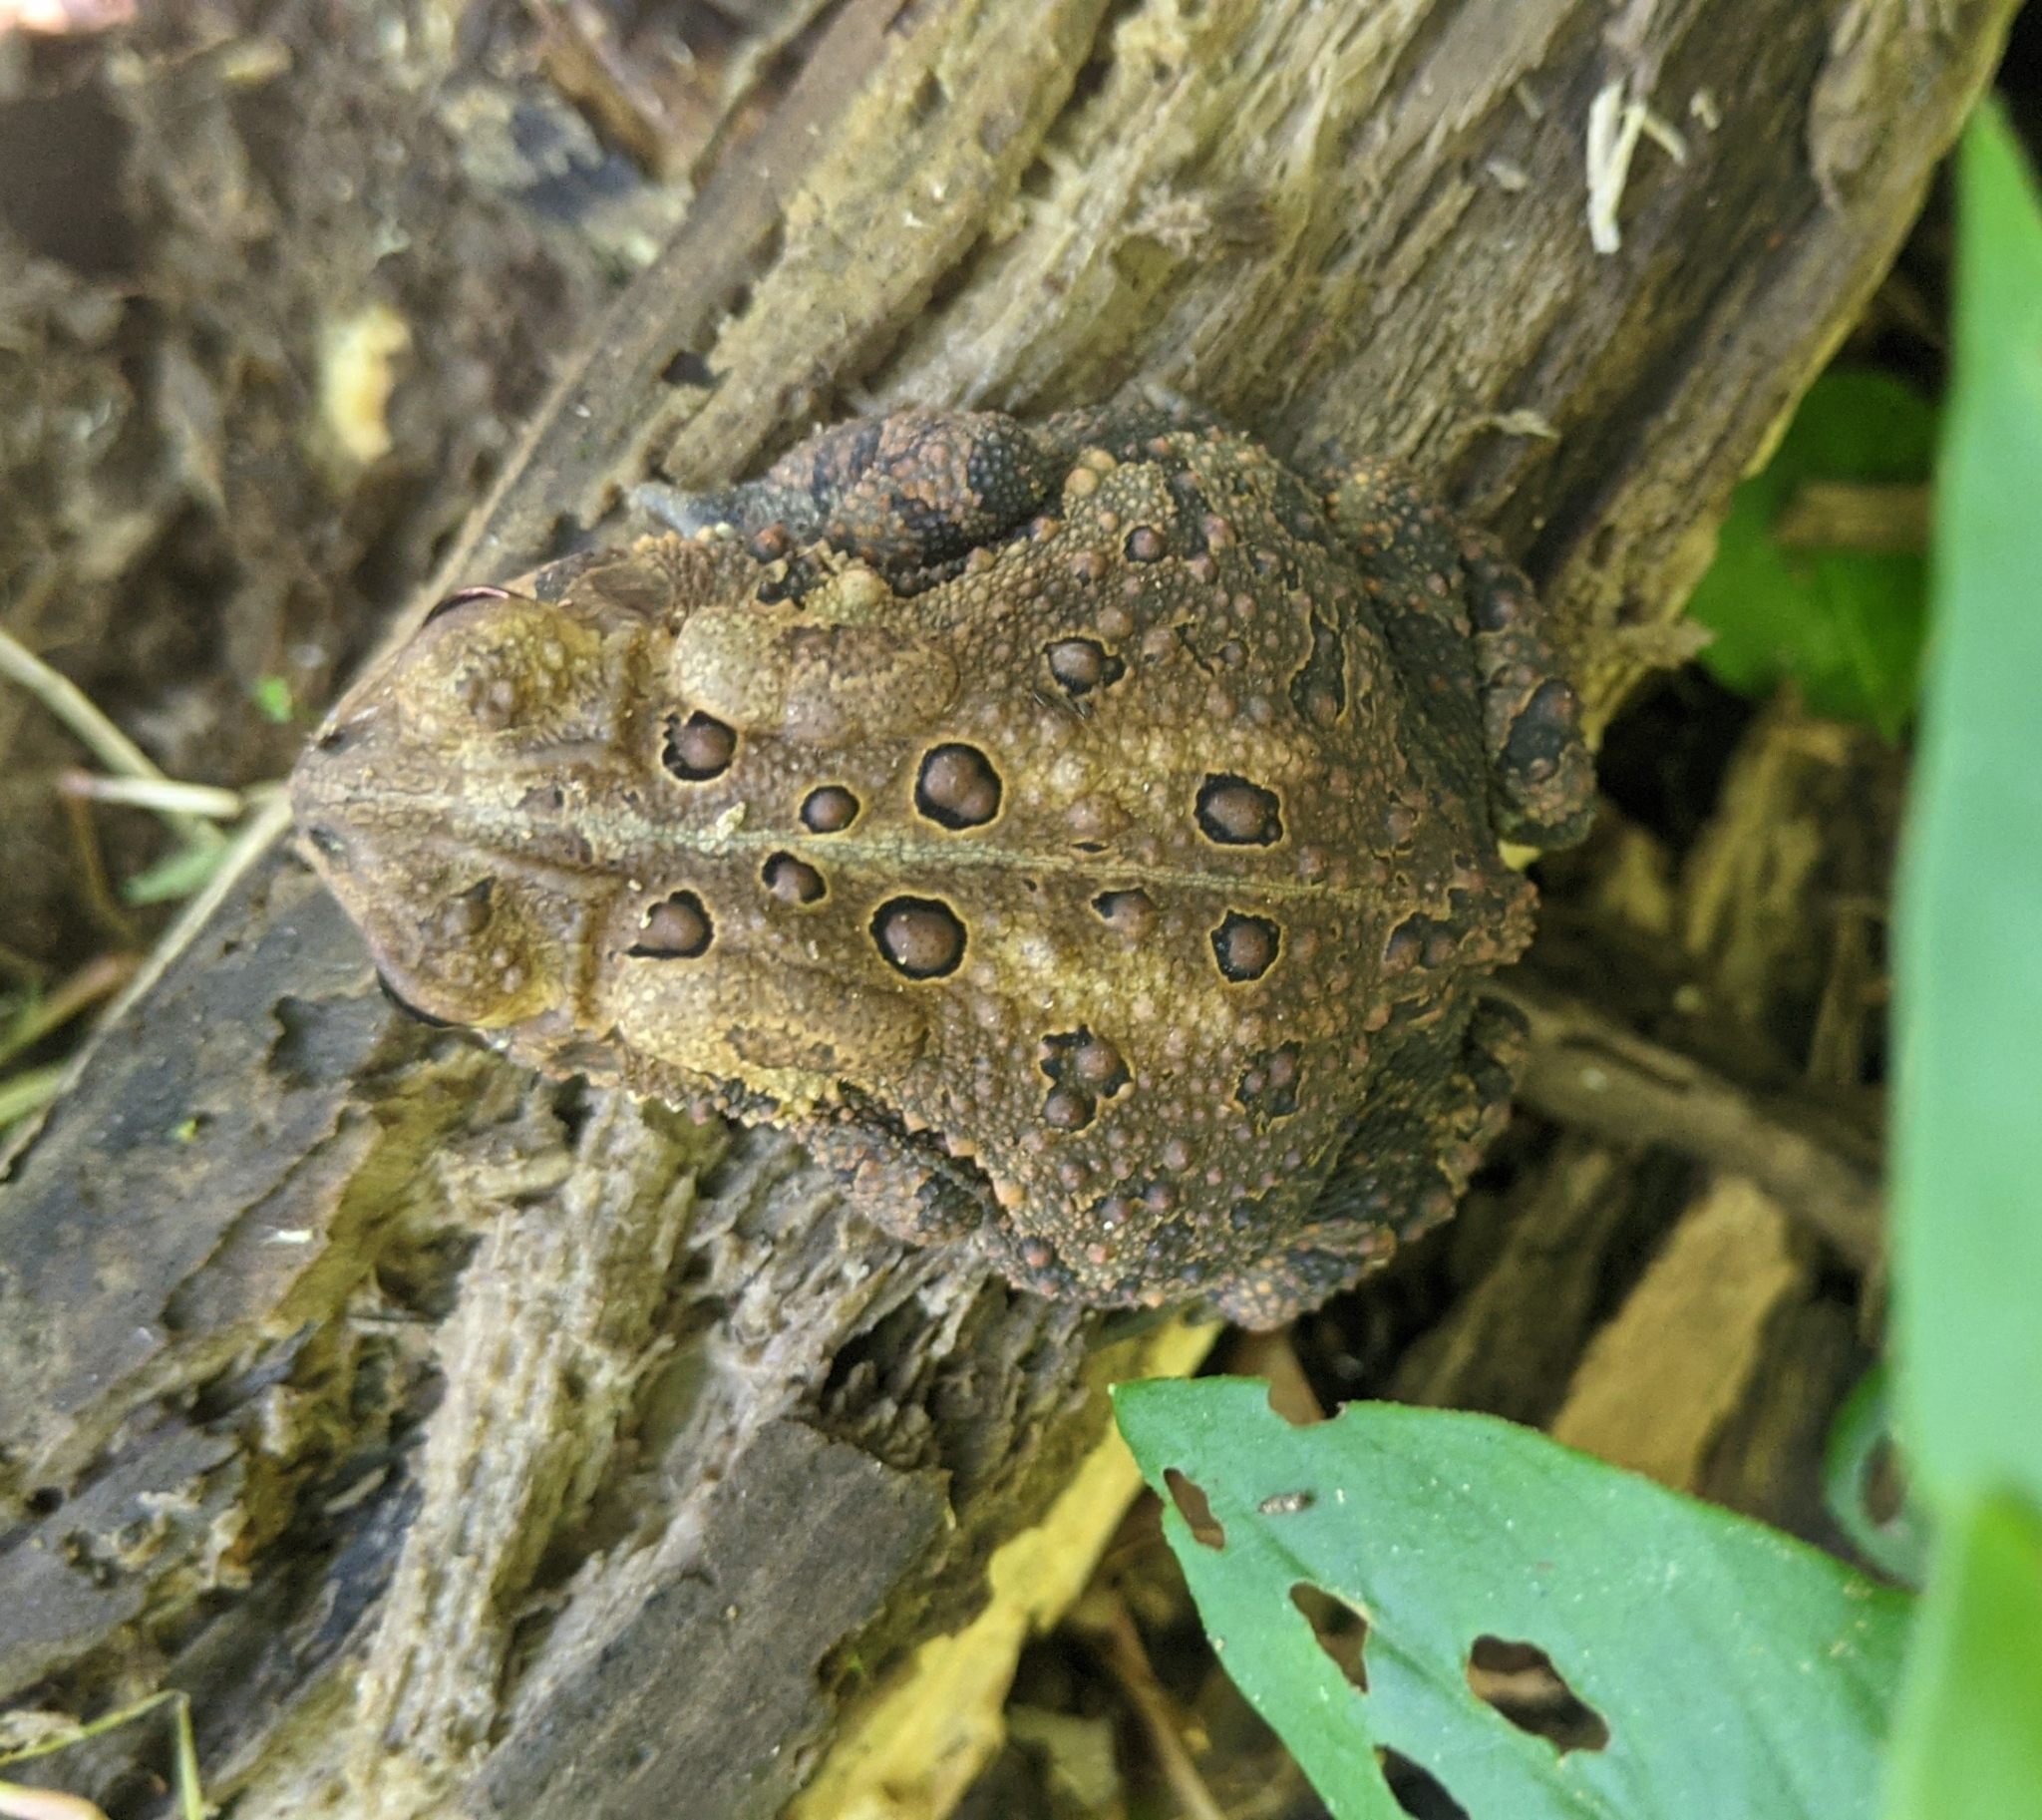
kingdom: Animalia
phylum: Chordata
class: Amphibia
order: Anura
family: Bufonidae
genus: Anaxyrus
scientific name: Anaxyrus americanus
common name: American toad
